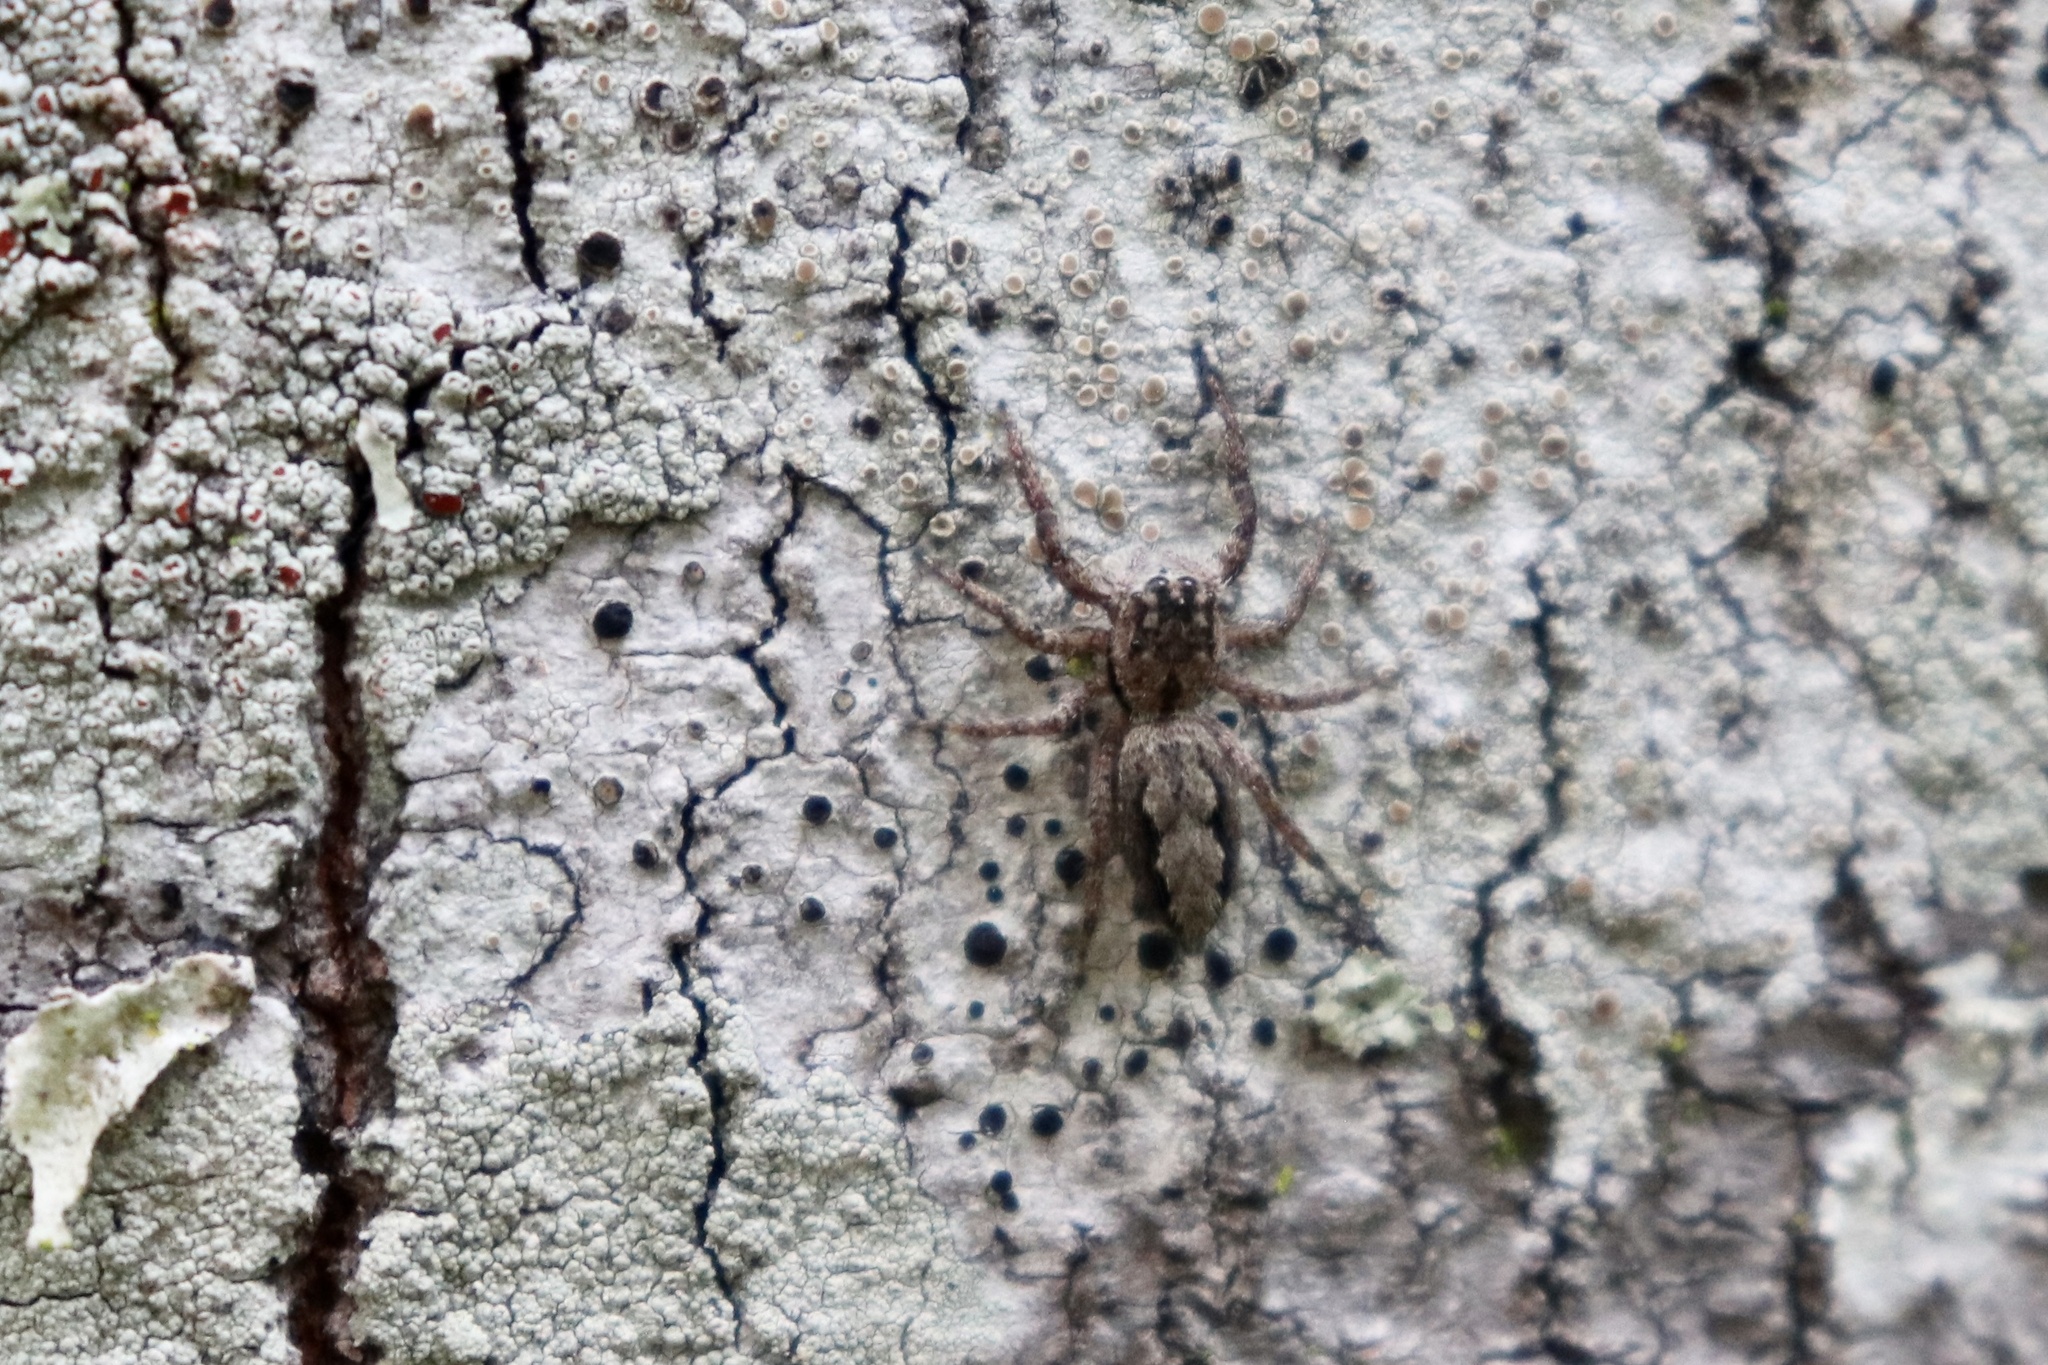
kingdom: Animalia
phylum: Arthropoda
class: Arachnida
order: Araneae
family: Salticidae
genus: Platycryptus
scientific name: Platycryptus undatus
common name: Tan jumping spider
